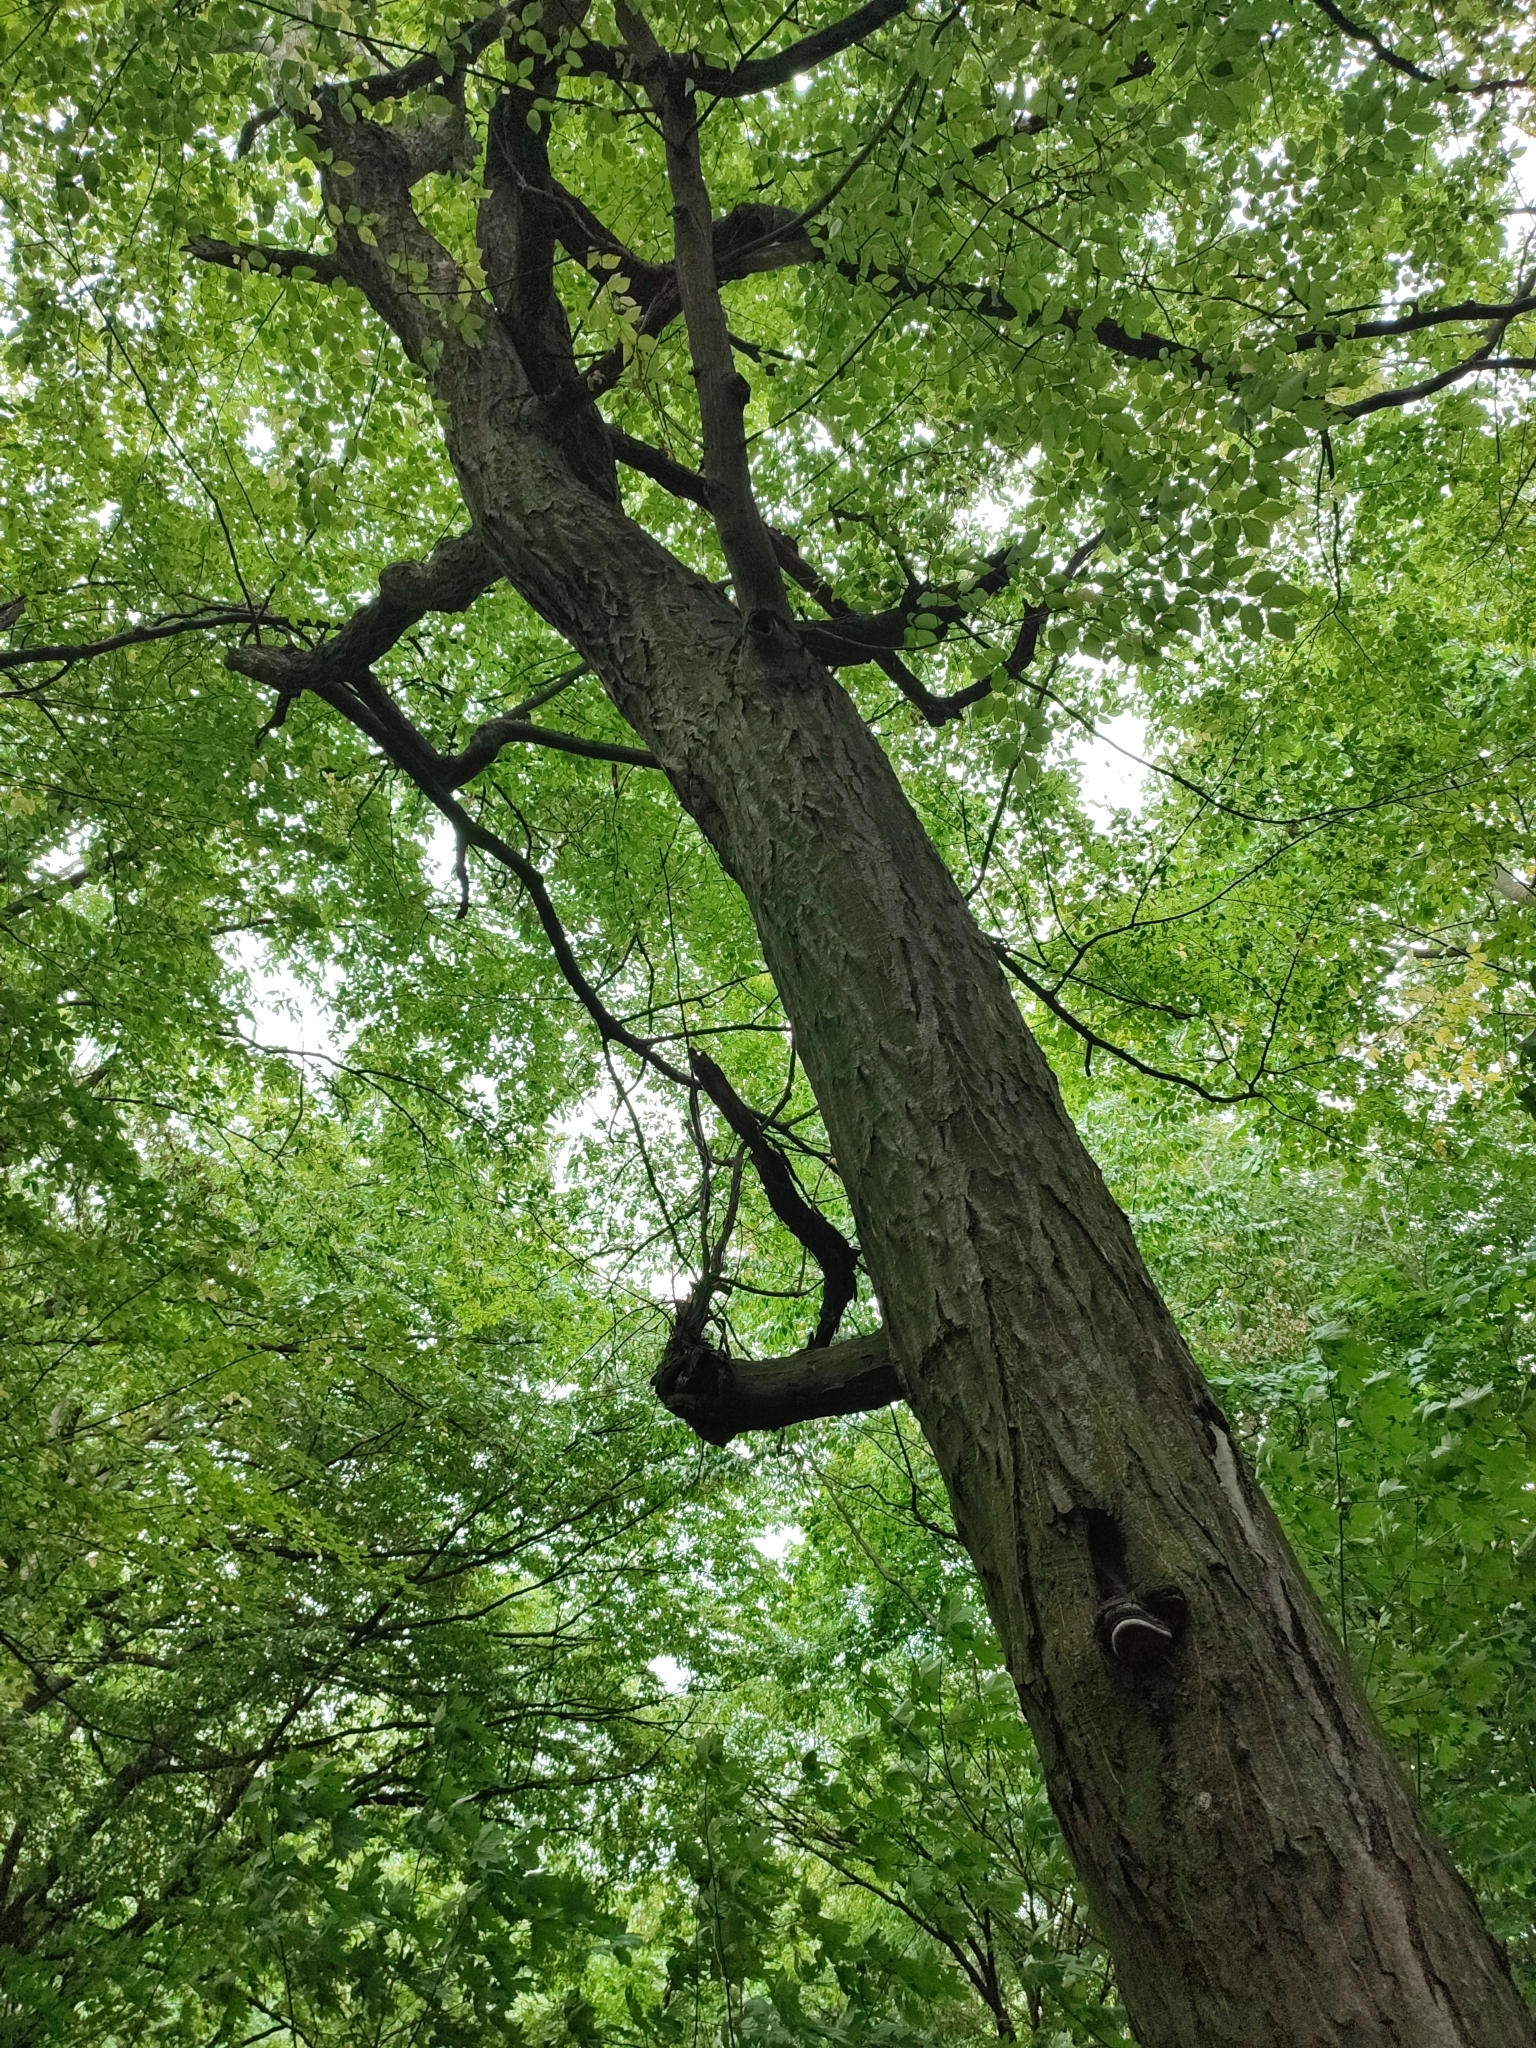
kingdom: Plantae
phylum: Tracheophyta
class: Magnoliopsida
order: Fagales
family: Betulaceae
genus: Carpinus
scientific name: Carpinus betulus
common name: Hornbeam
